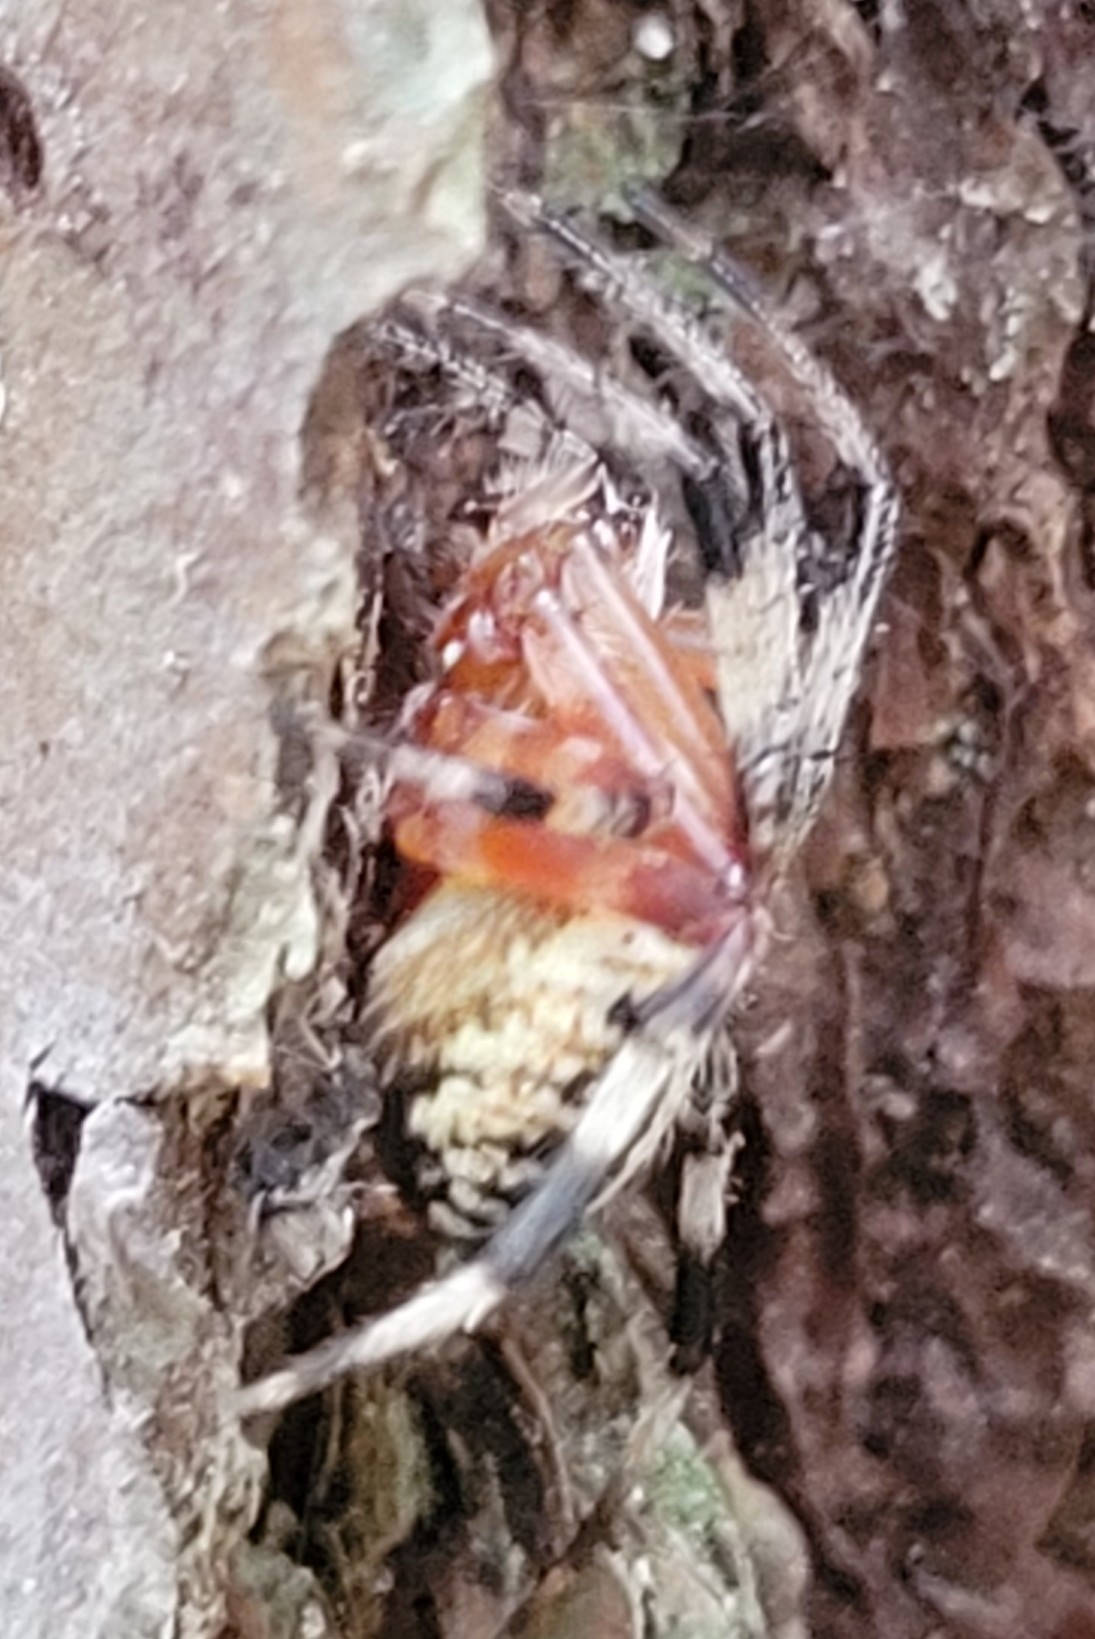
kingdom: Animalia
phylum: Arthropoda
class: Arachnida
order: Araneae
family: Araneidae
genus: Neoscona
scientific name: Neoscona domiciliorum
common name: Red-femured spotted orbweaver
